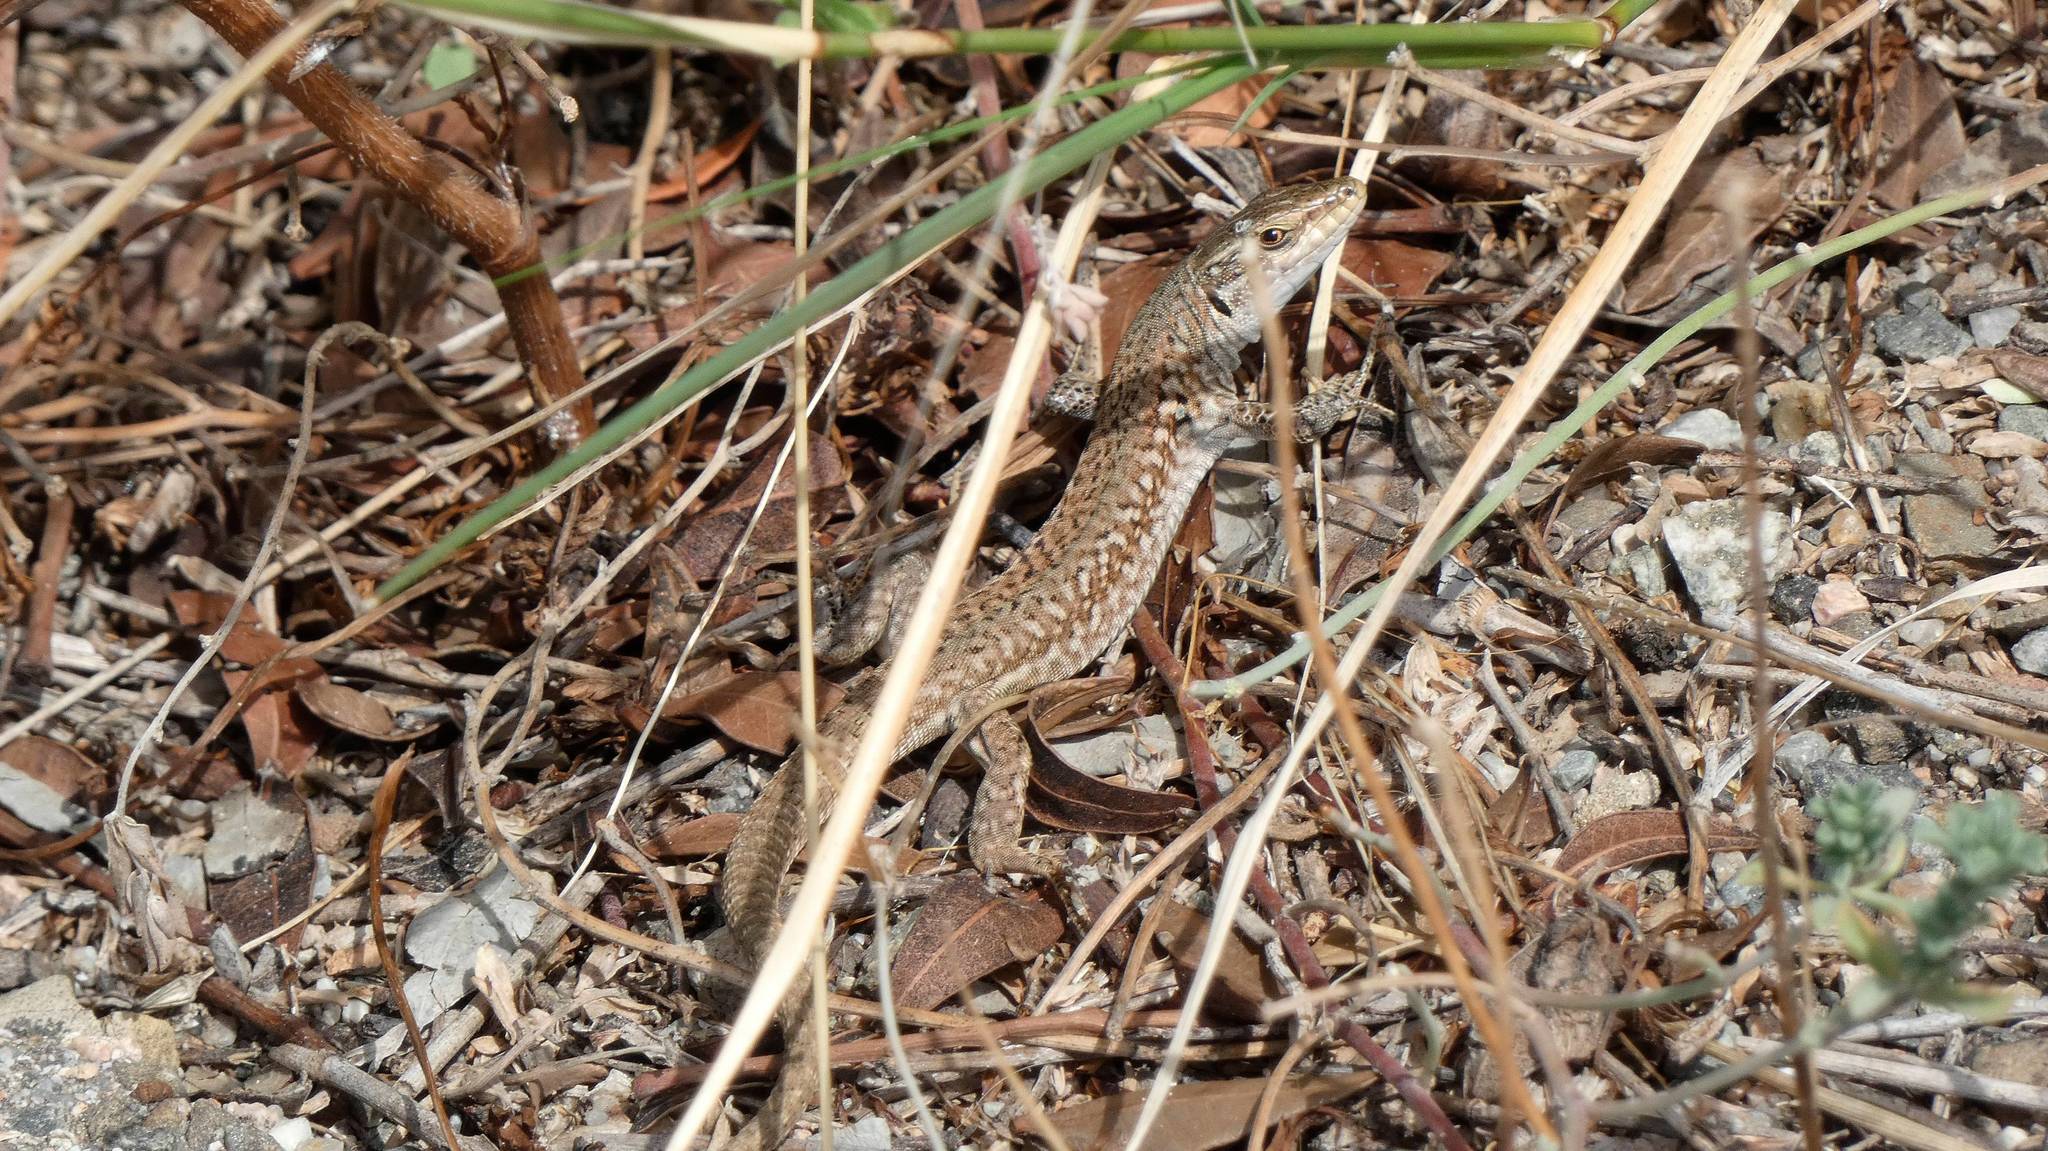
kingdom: Animalia
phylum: Chordata
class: Squamata
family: Lacertidae
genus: Podarcis
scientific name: Podarcis siculus
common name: Italian wall lizard
